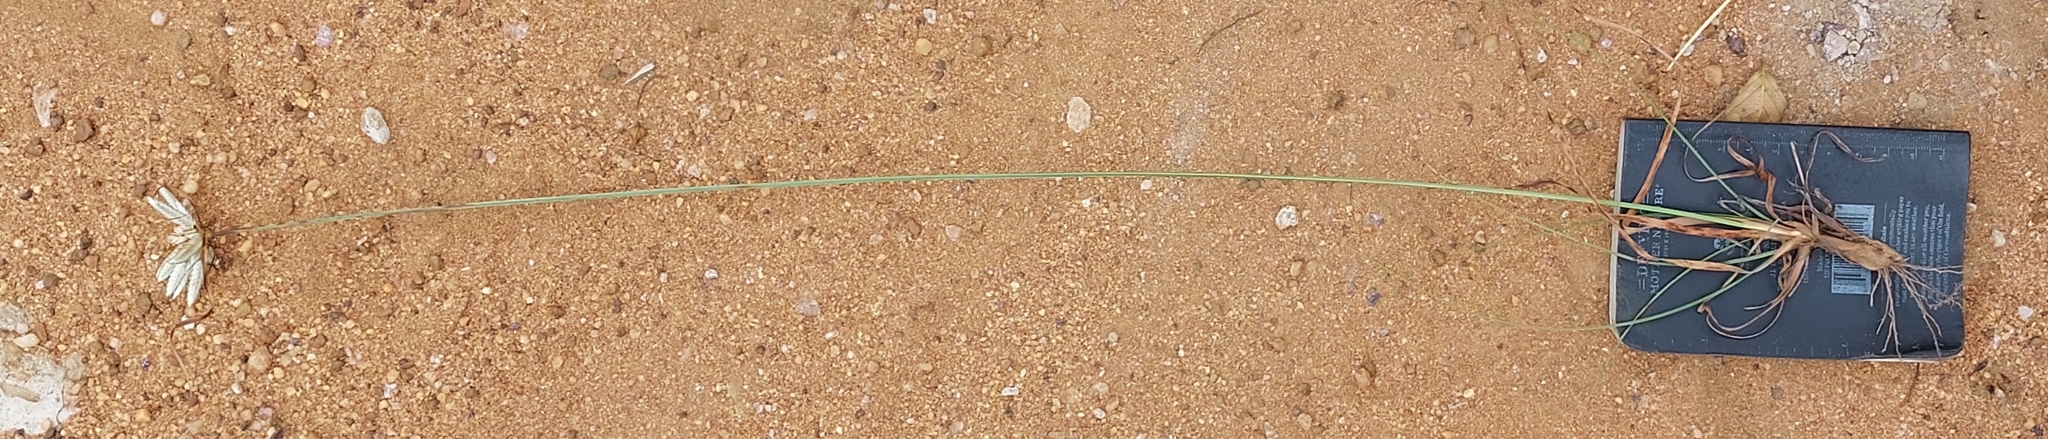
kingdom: Plantae
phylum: Tracheophyta
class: Liliopsida
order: Poales
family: Cyperaceae
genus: Cyperus
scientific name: Cyperus margaritaceus
